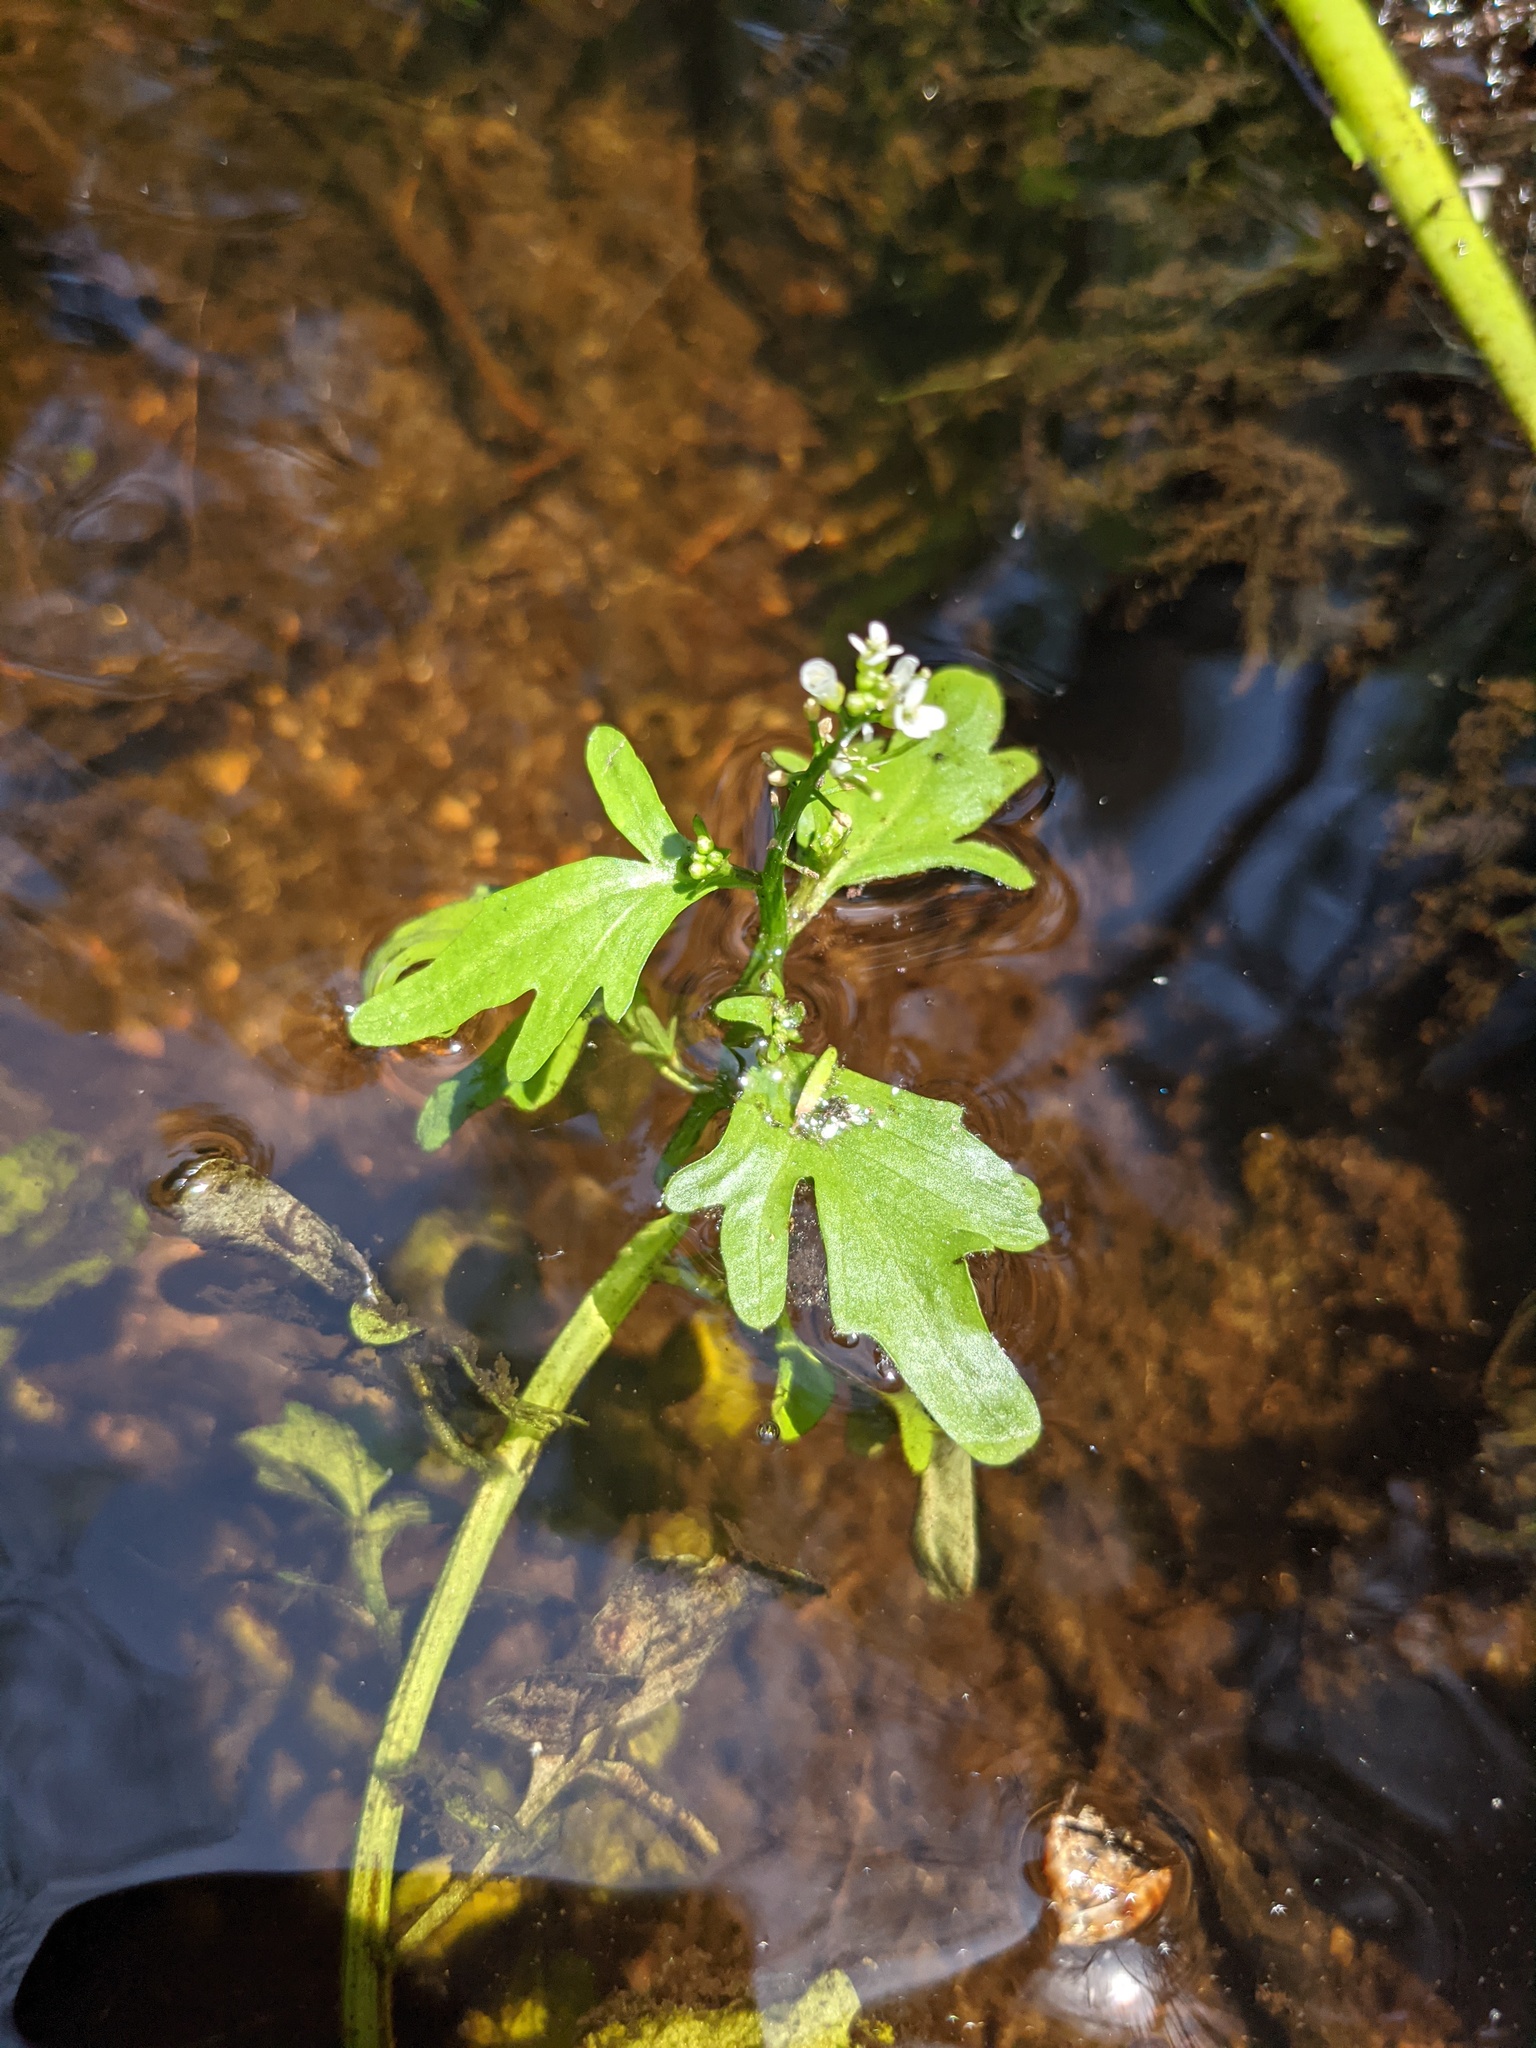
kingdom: Plantae
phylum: Tracheophyta
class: Magnoliopsida
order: Brassicales
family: Brassicaceae
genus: Cardamine
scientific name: Cardamine pensylvanica
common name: Pennsylvania bittercress
